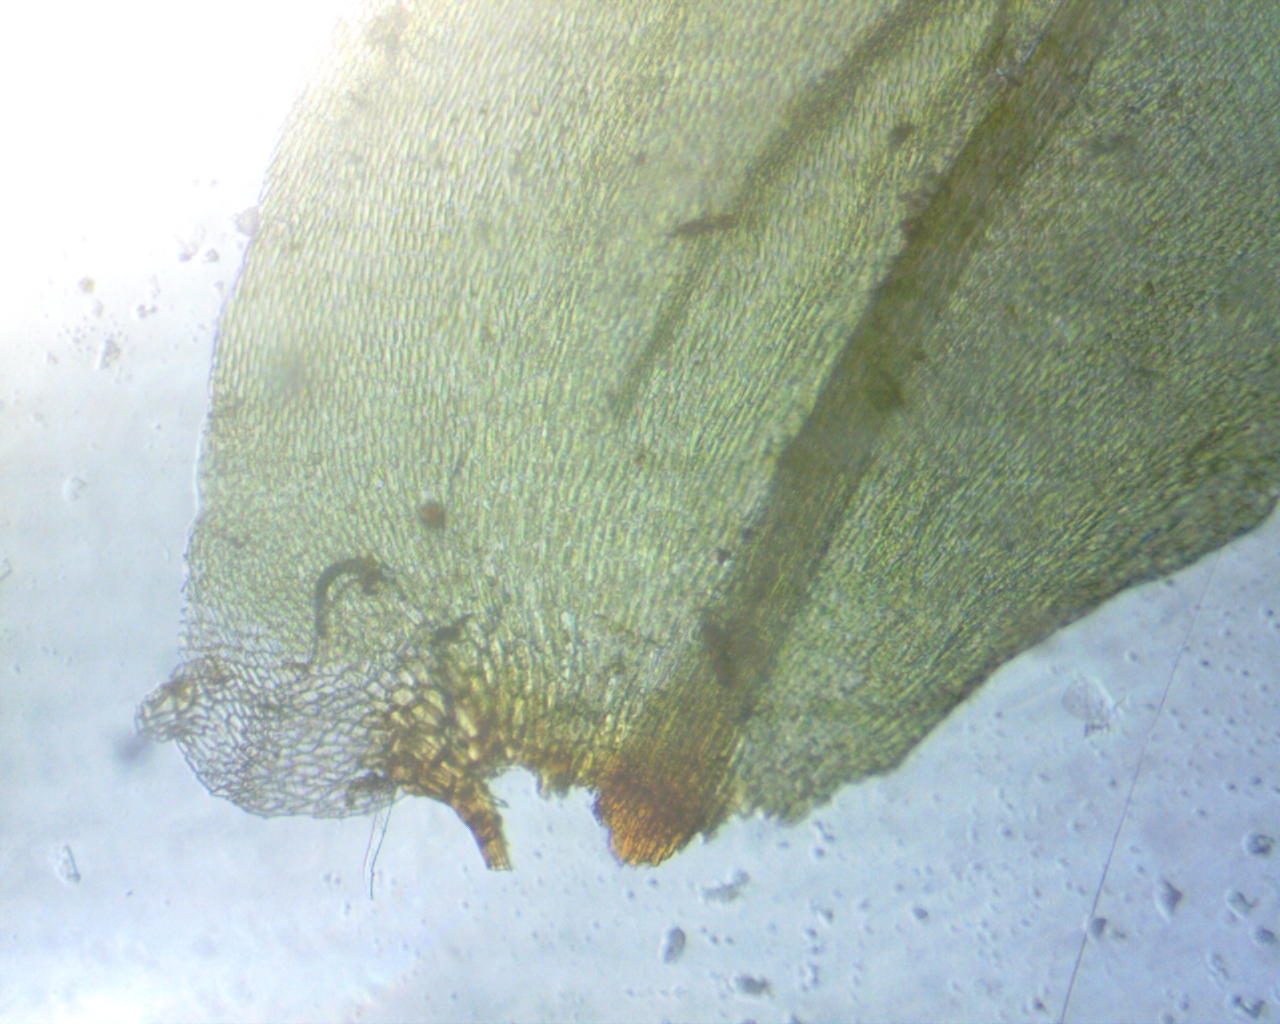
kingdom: Plantae
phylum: Bryophyta
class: Bryopsida
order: Hypnales
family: Climaciaceae
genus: Climacium
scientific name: Climacium americanum
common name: American tree moss
